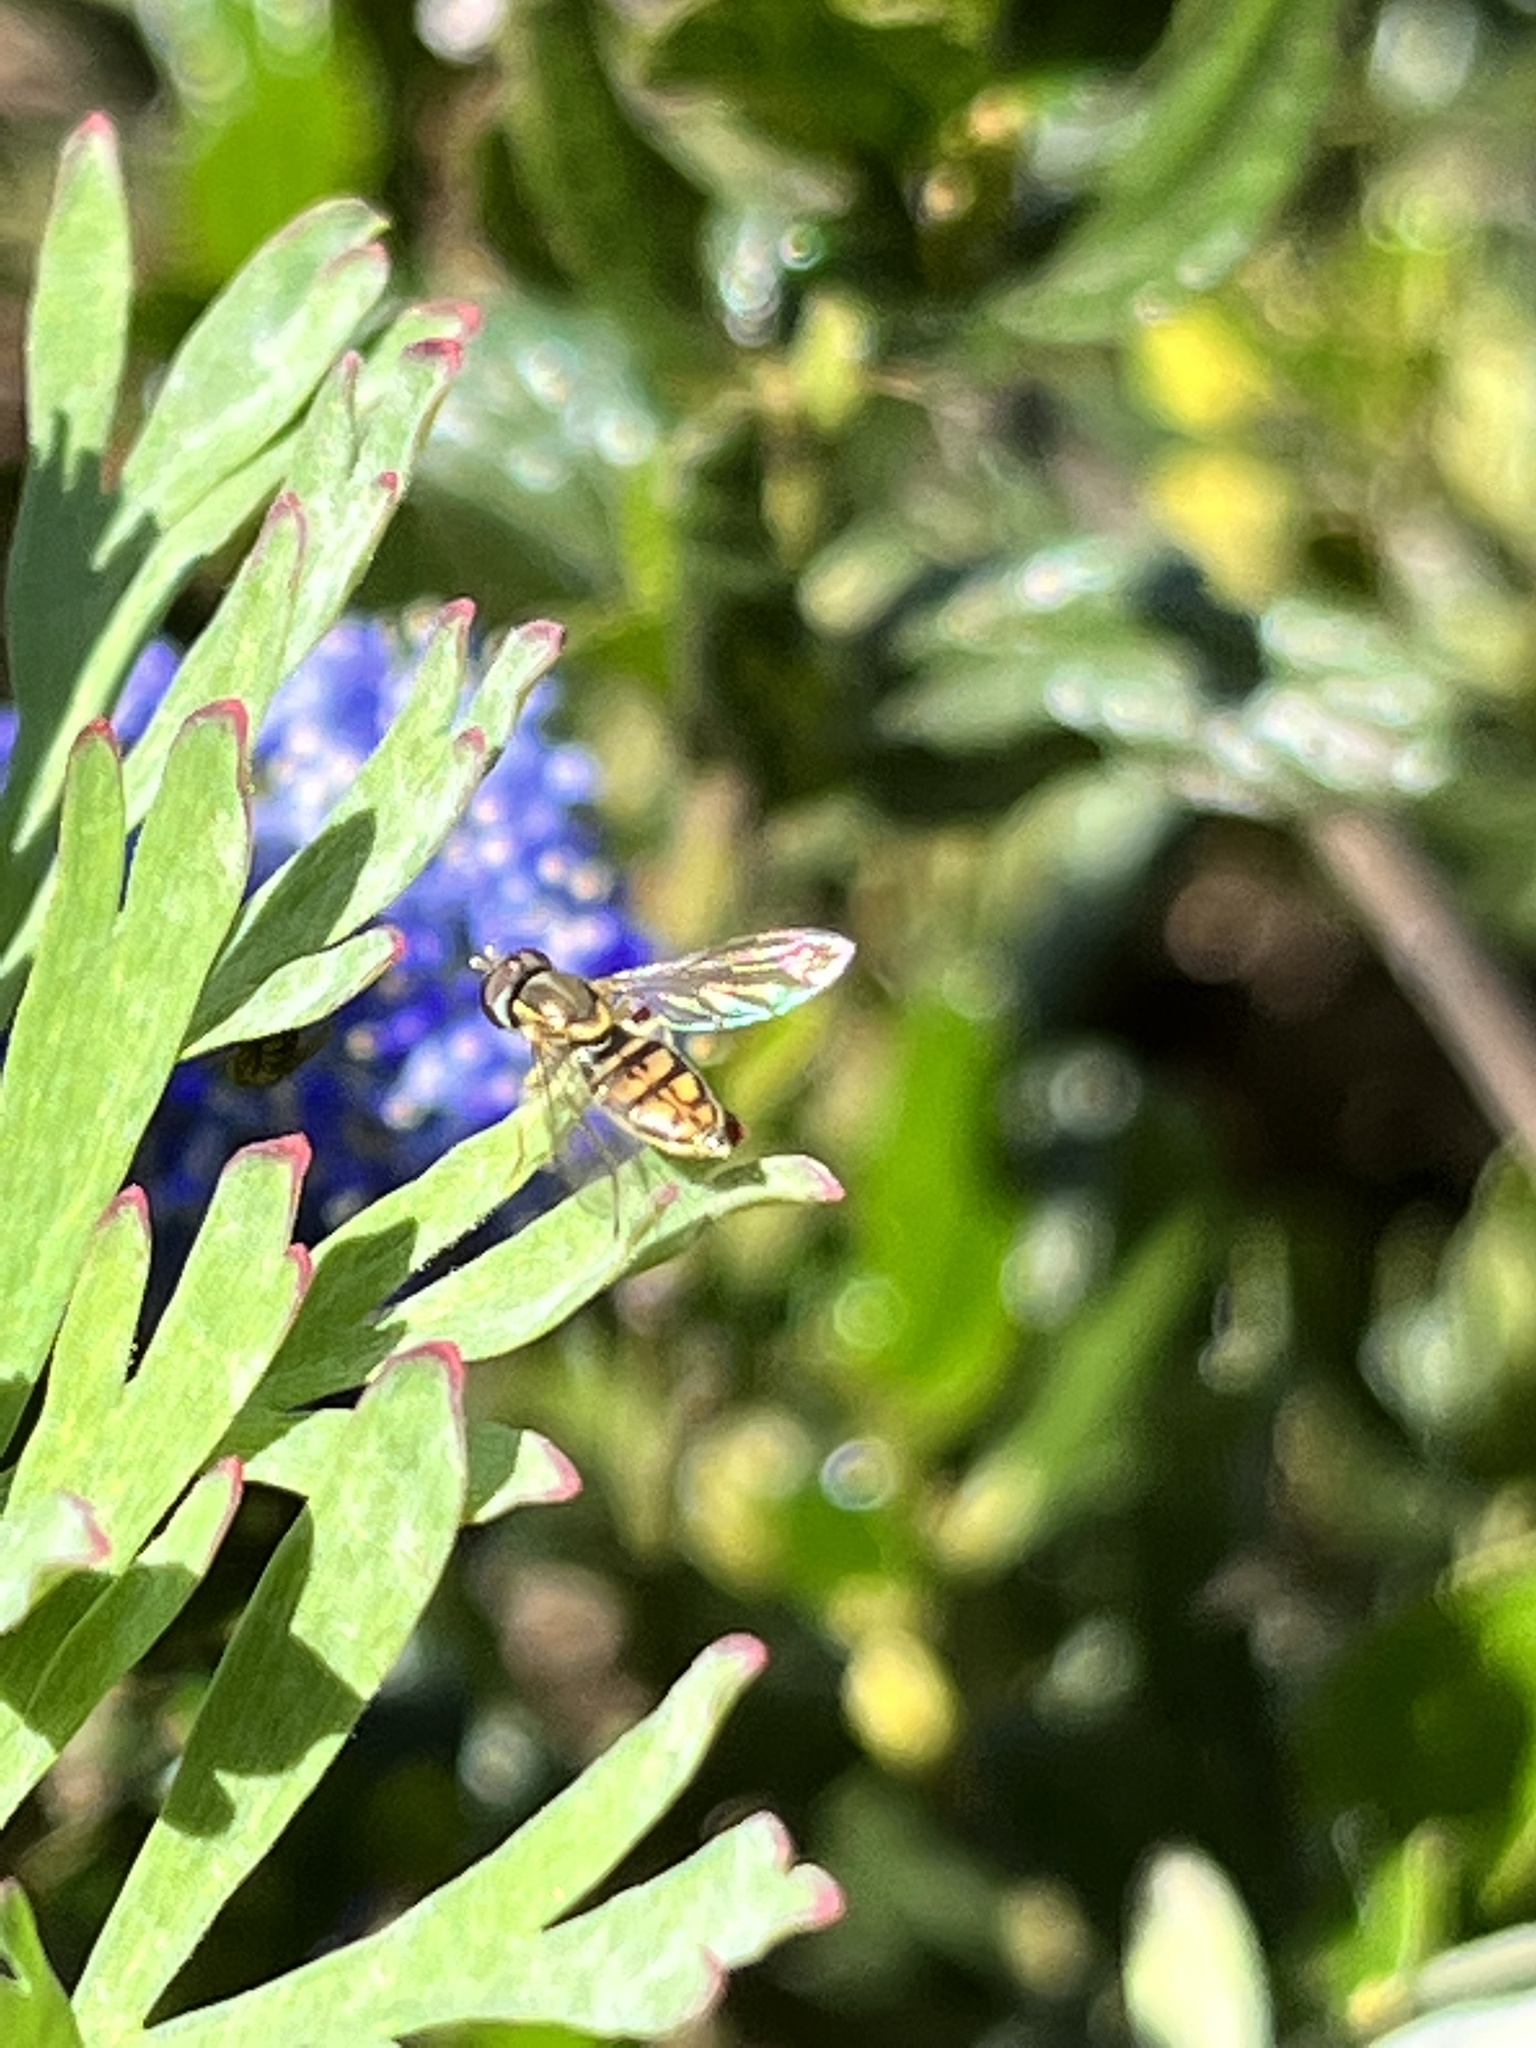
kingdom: Animalia
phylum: Arthropoda
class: Insecta
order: Diptera
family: Syrphidae
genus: Toxomerus
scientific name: Toxomerus marginatus
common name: Syrphid fly
